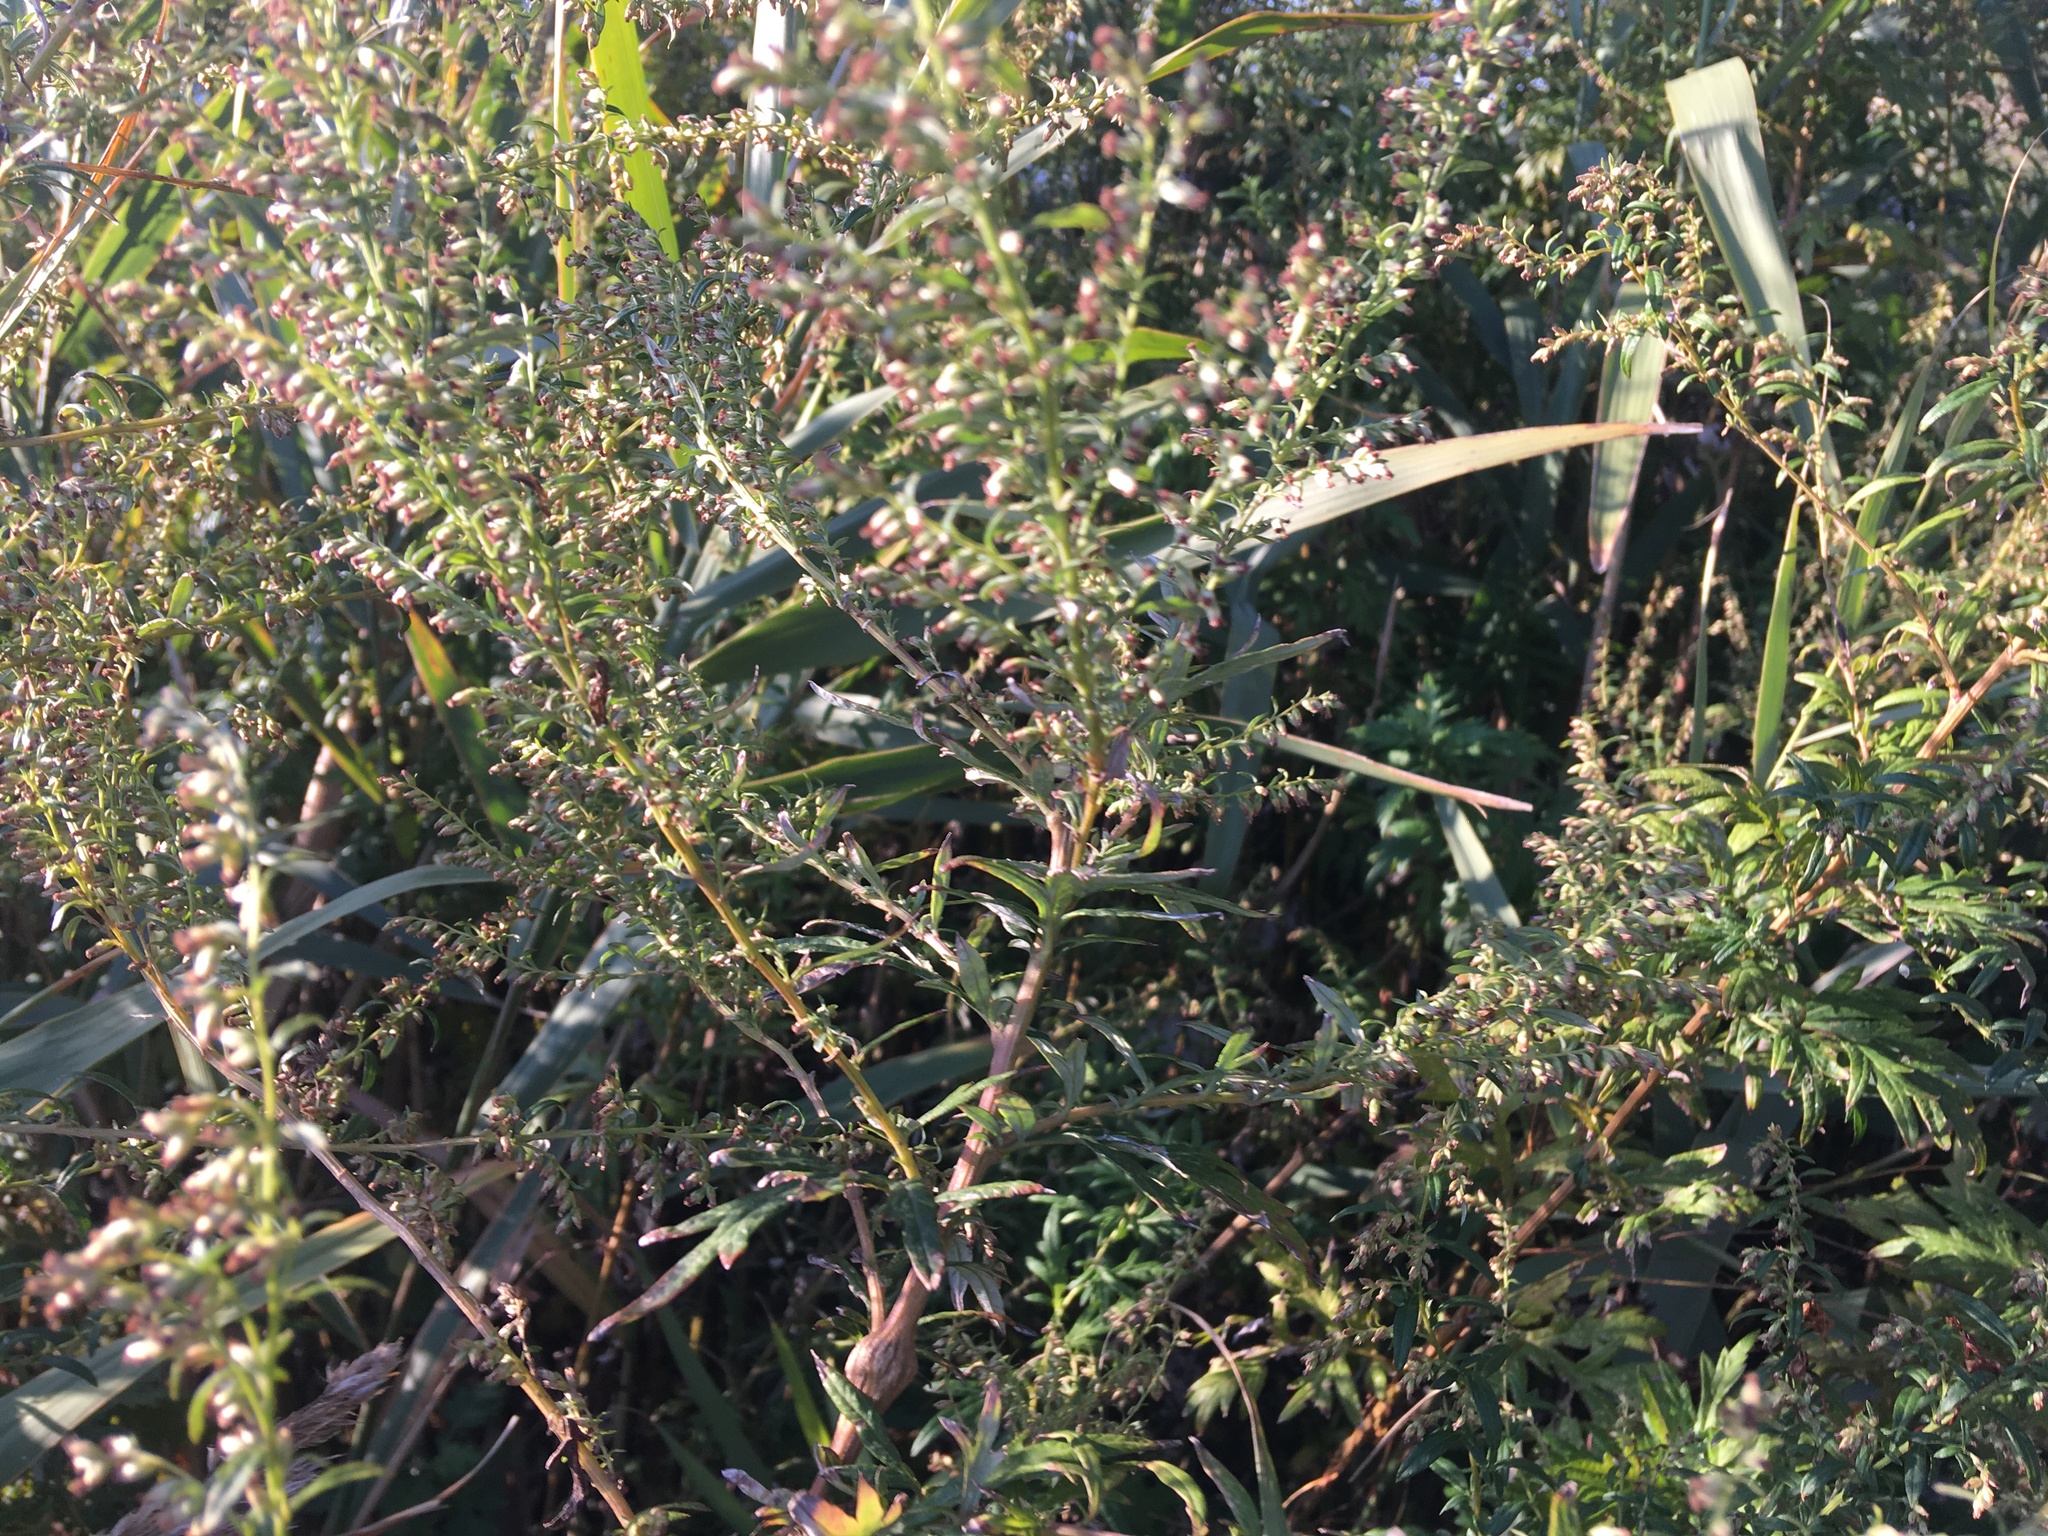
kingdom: Plantae
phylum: Tracheophyta
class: Magnoliopsida
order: Asterales
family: Asteraceae
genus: Artemisia
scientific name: Artemisia vulgaris
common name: Mugwort
